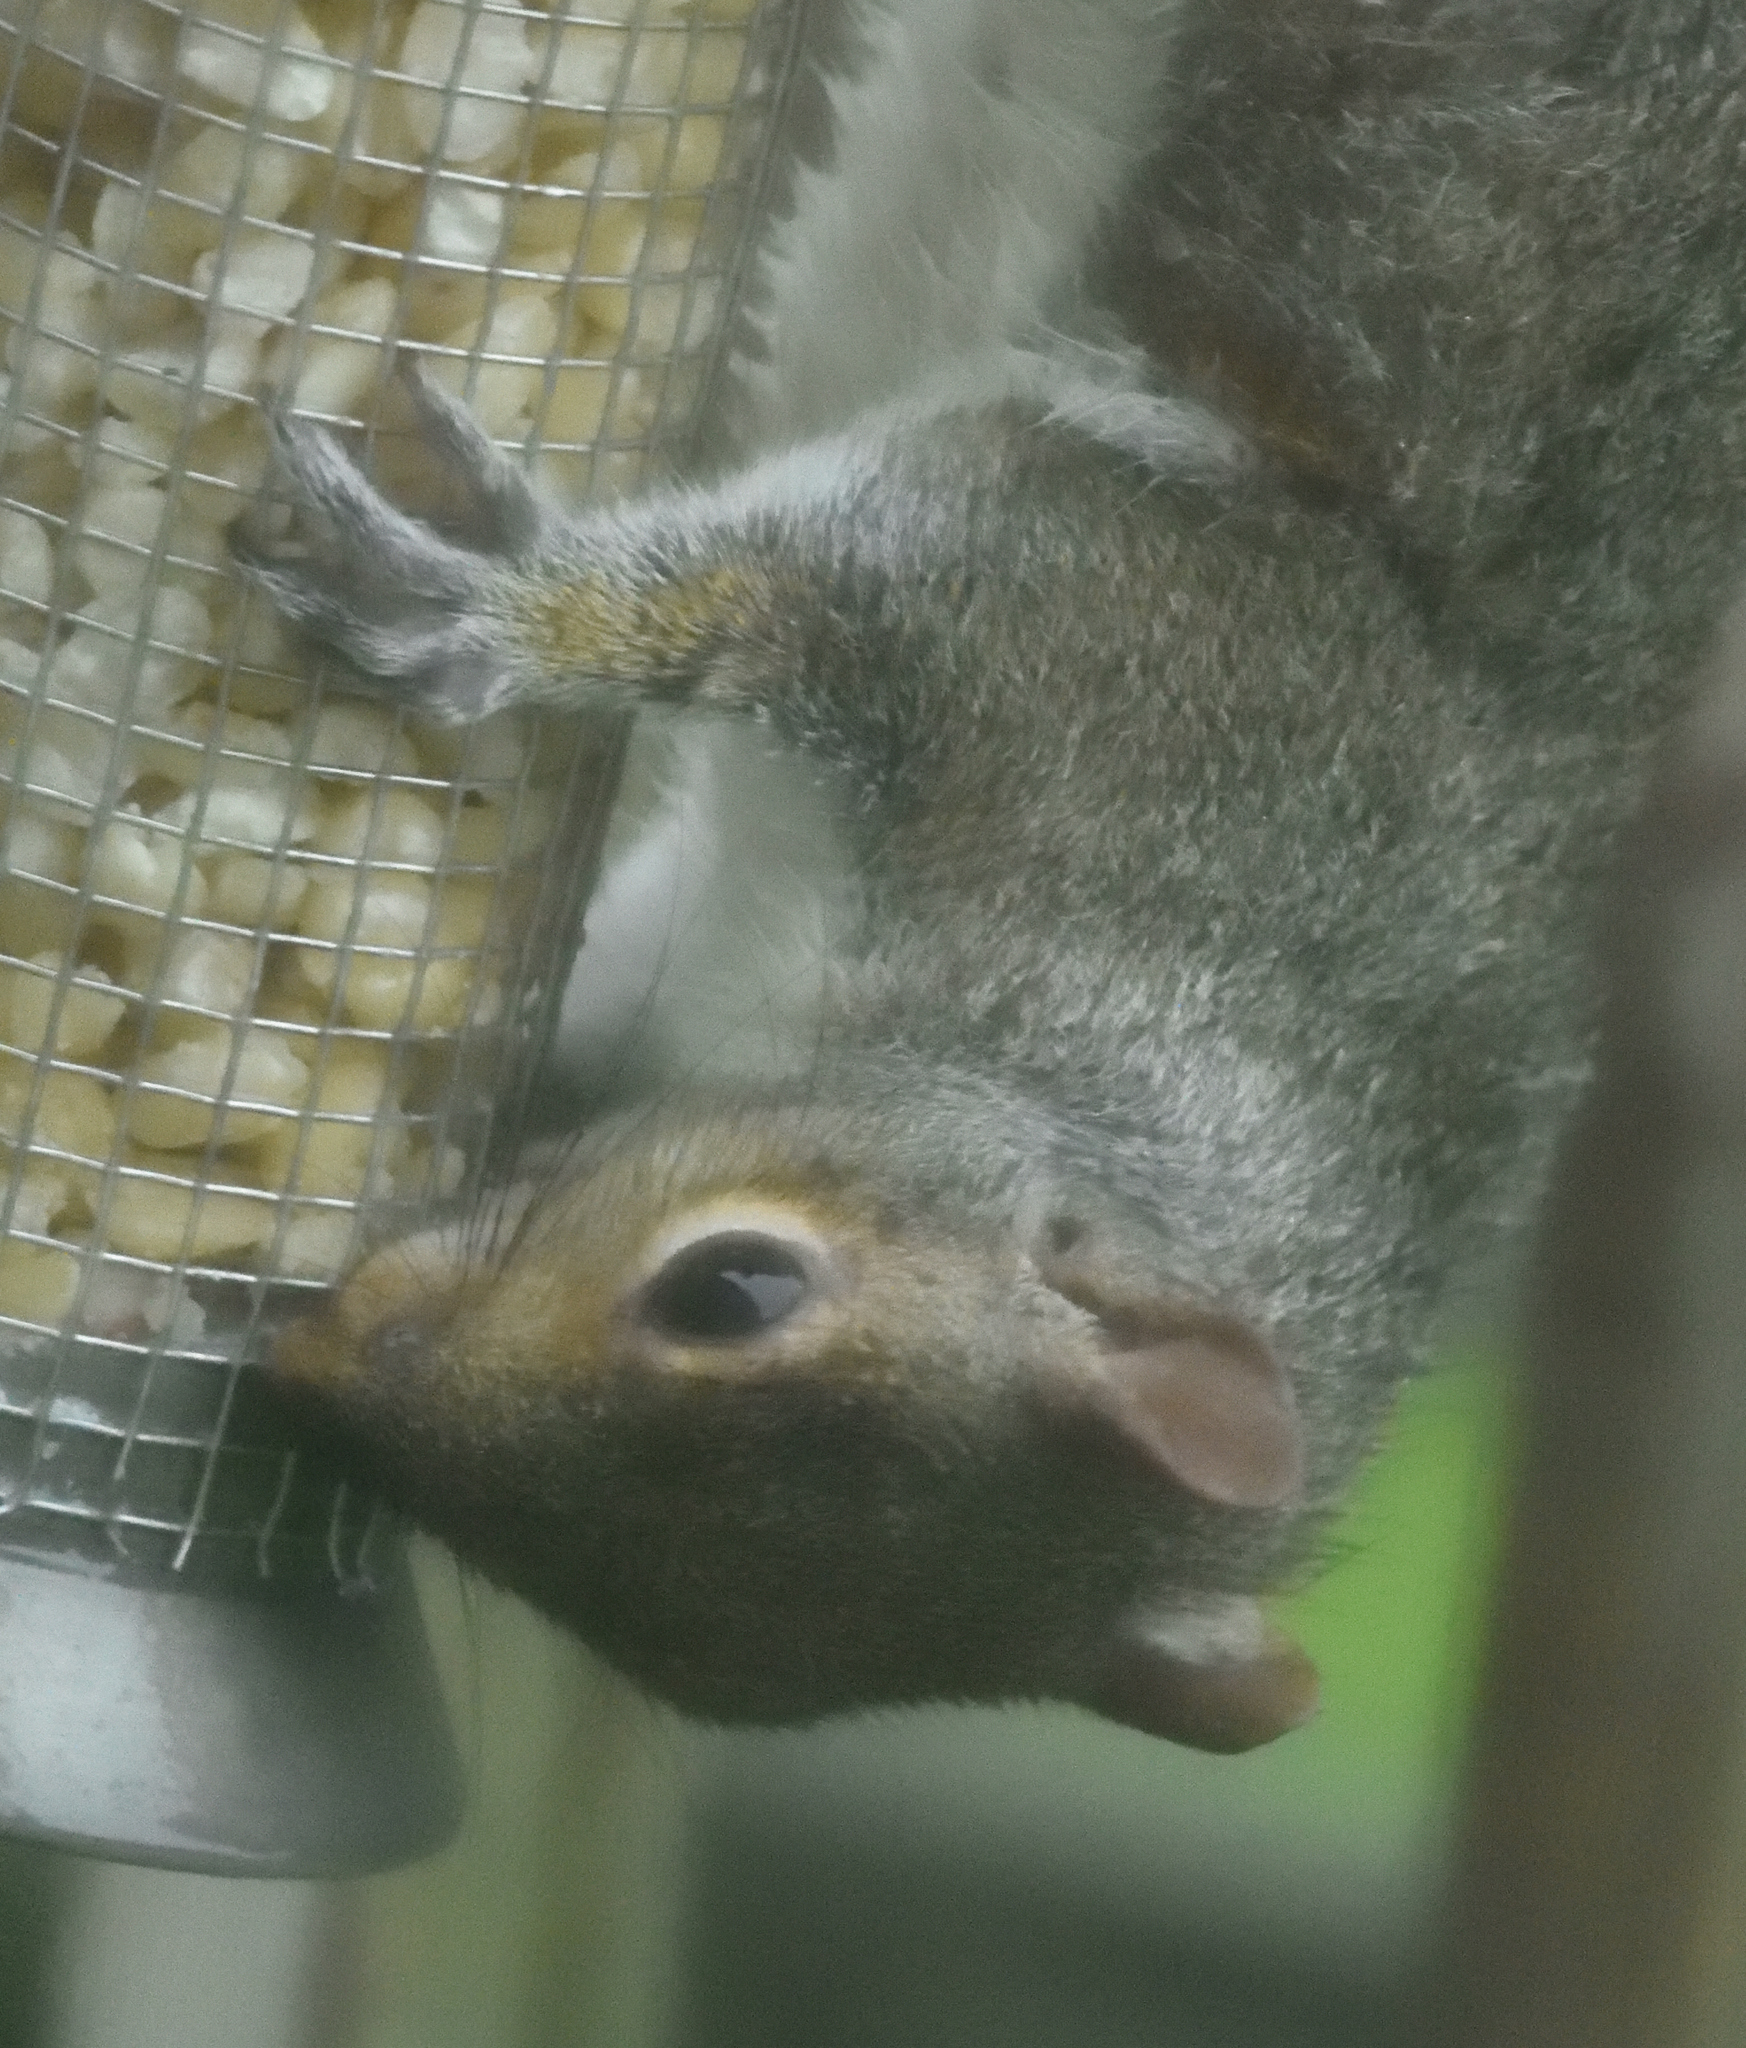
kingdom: Animalia
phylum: Chordata
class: Mammalia
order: Rodentia
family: Sciuridae
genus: Sciurus
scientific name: Sciurus carolinensis
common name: Eastern gray squirrel
